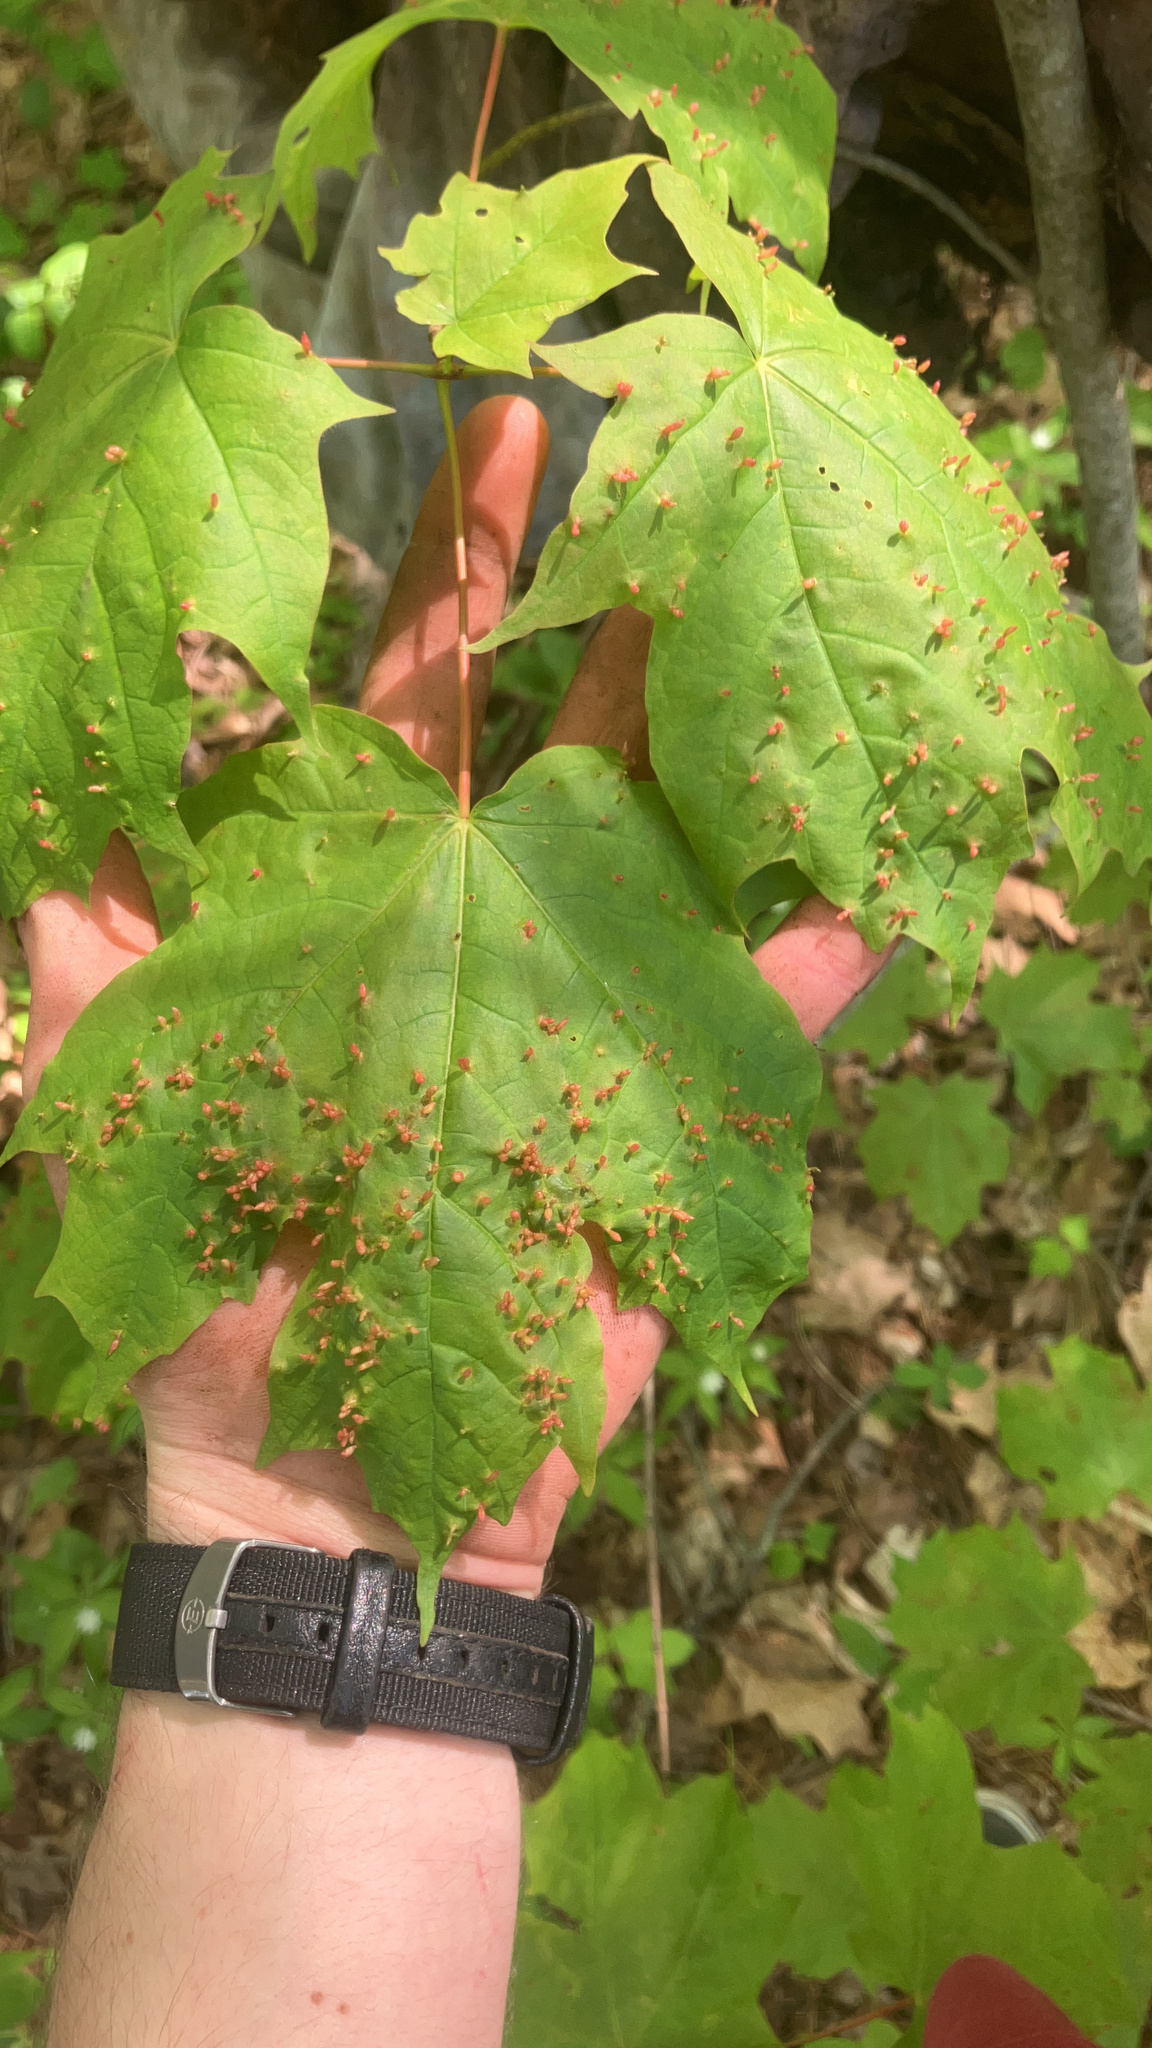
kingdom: Animalia
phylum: Arthropoda
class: Arachnida
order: Trombidiformes
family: Eriophyidae
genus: Vasates
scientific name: Vasates aceriscrumena
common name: Maple spindle gall mite
